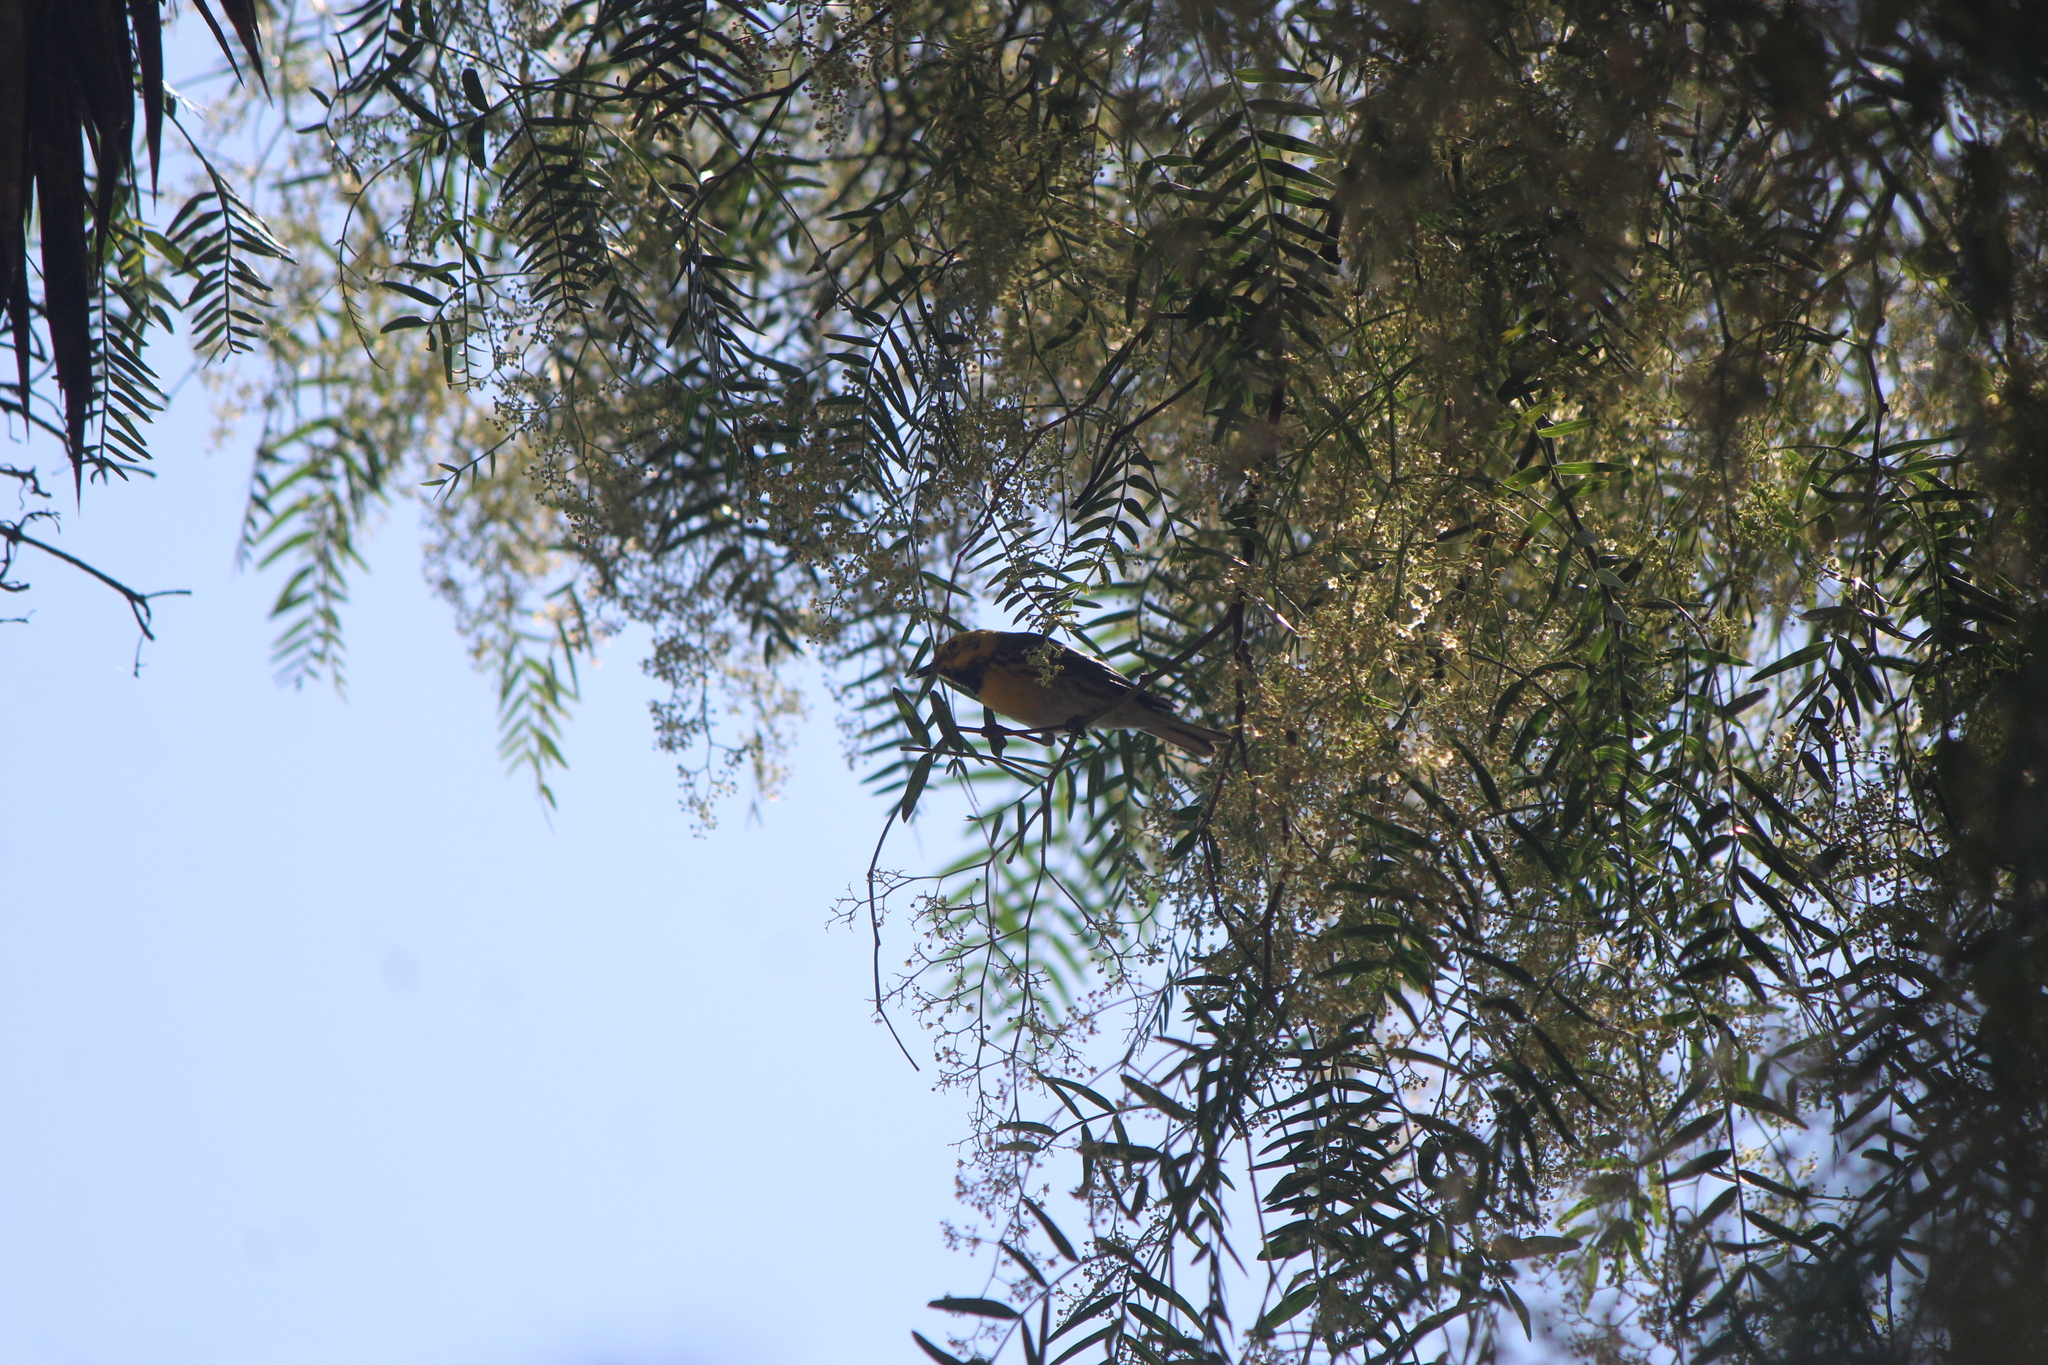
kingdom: Animalia
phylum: Chordata
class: Aves
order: Passeriformes
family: Parulidae
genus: Setophaga
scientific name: Setophaga townsendi
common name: Townsend's warbler
